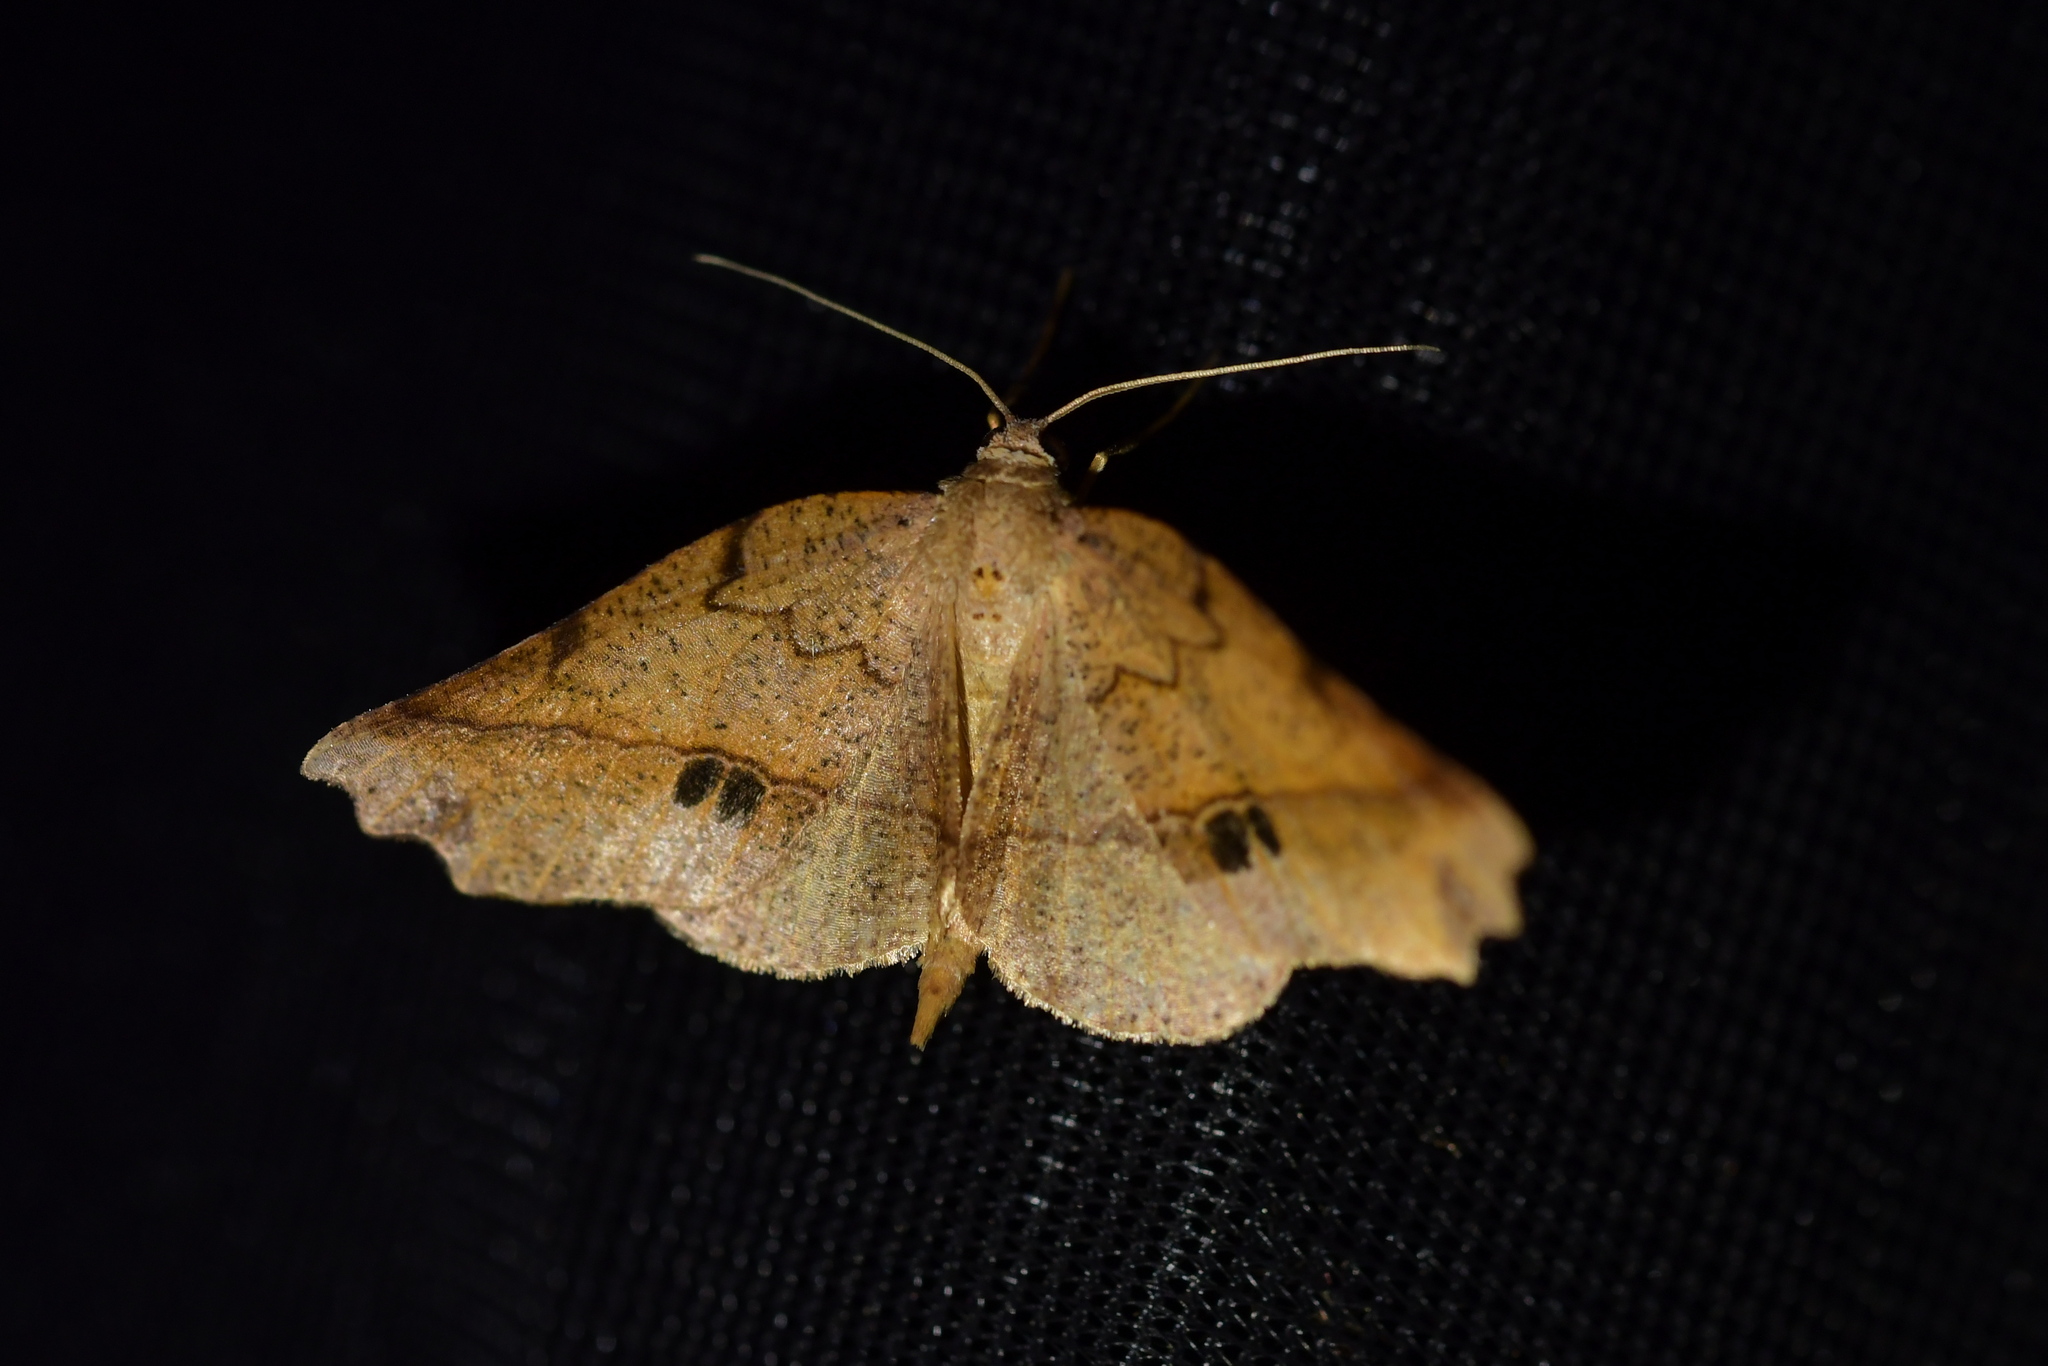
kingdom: Animalia
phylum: Arthropoda
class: Insecta
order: Lepidoptera
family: Geometridae
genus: Ischalis
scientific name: Ischalis gallaria
